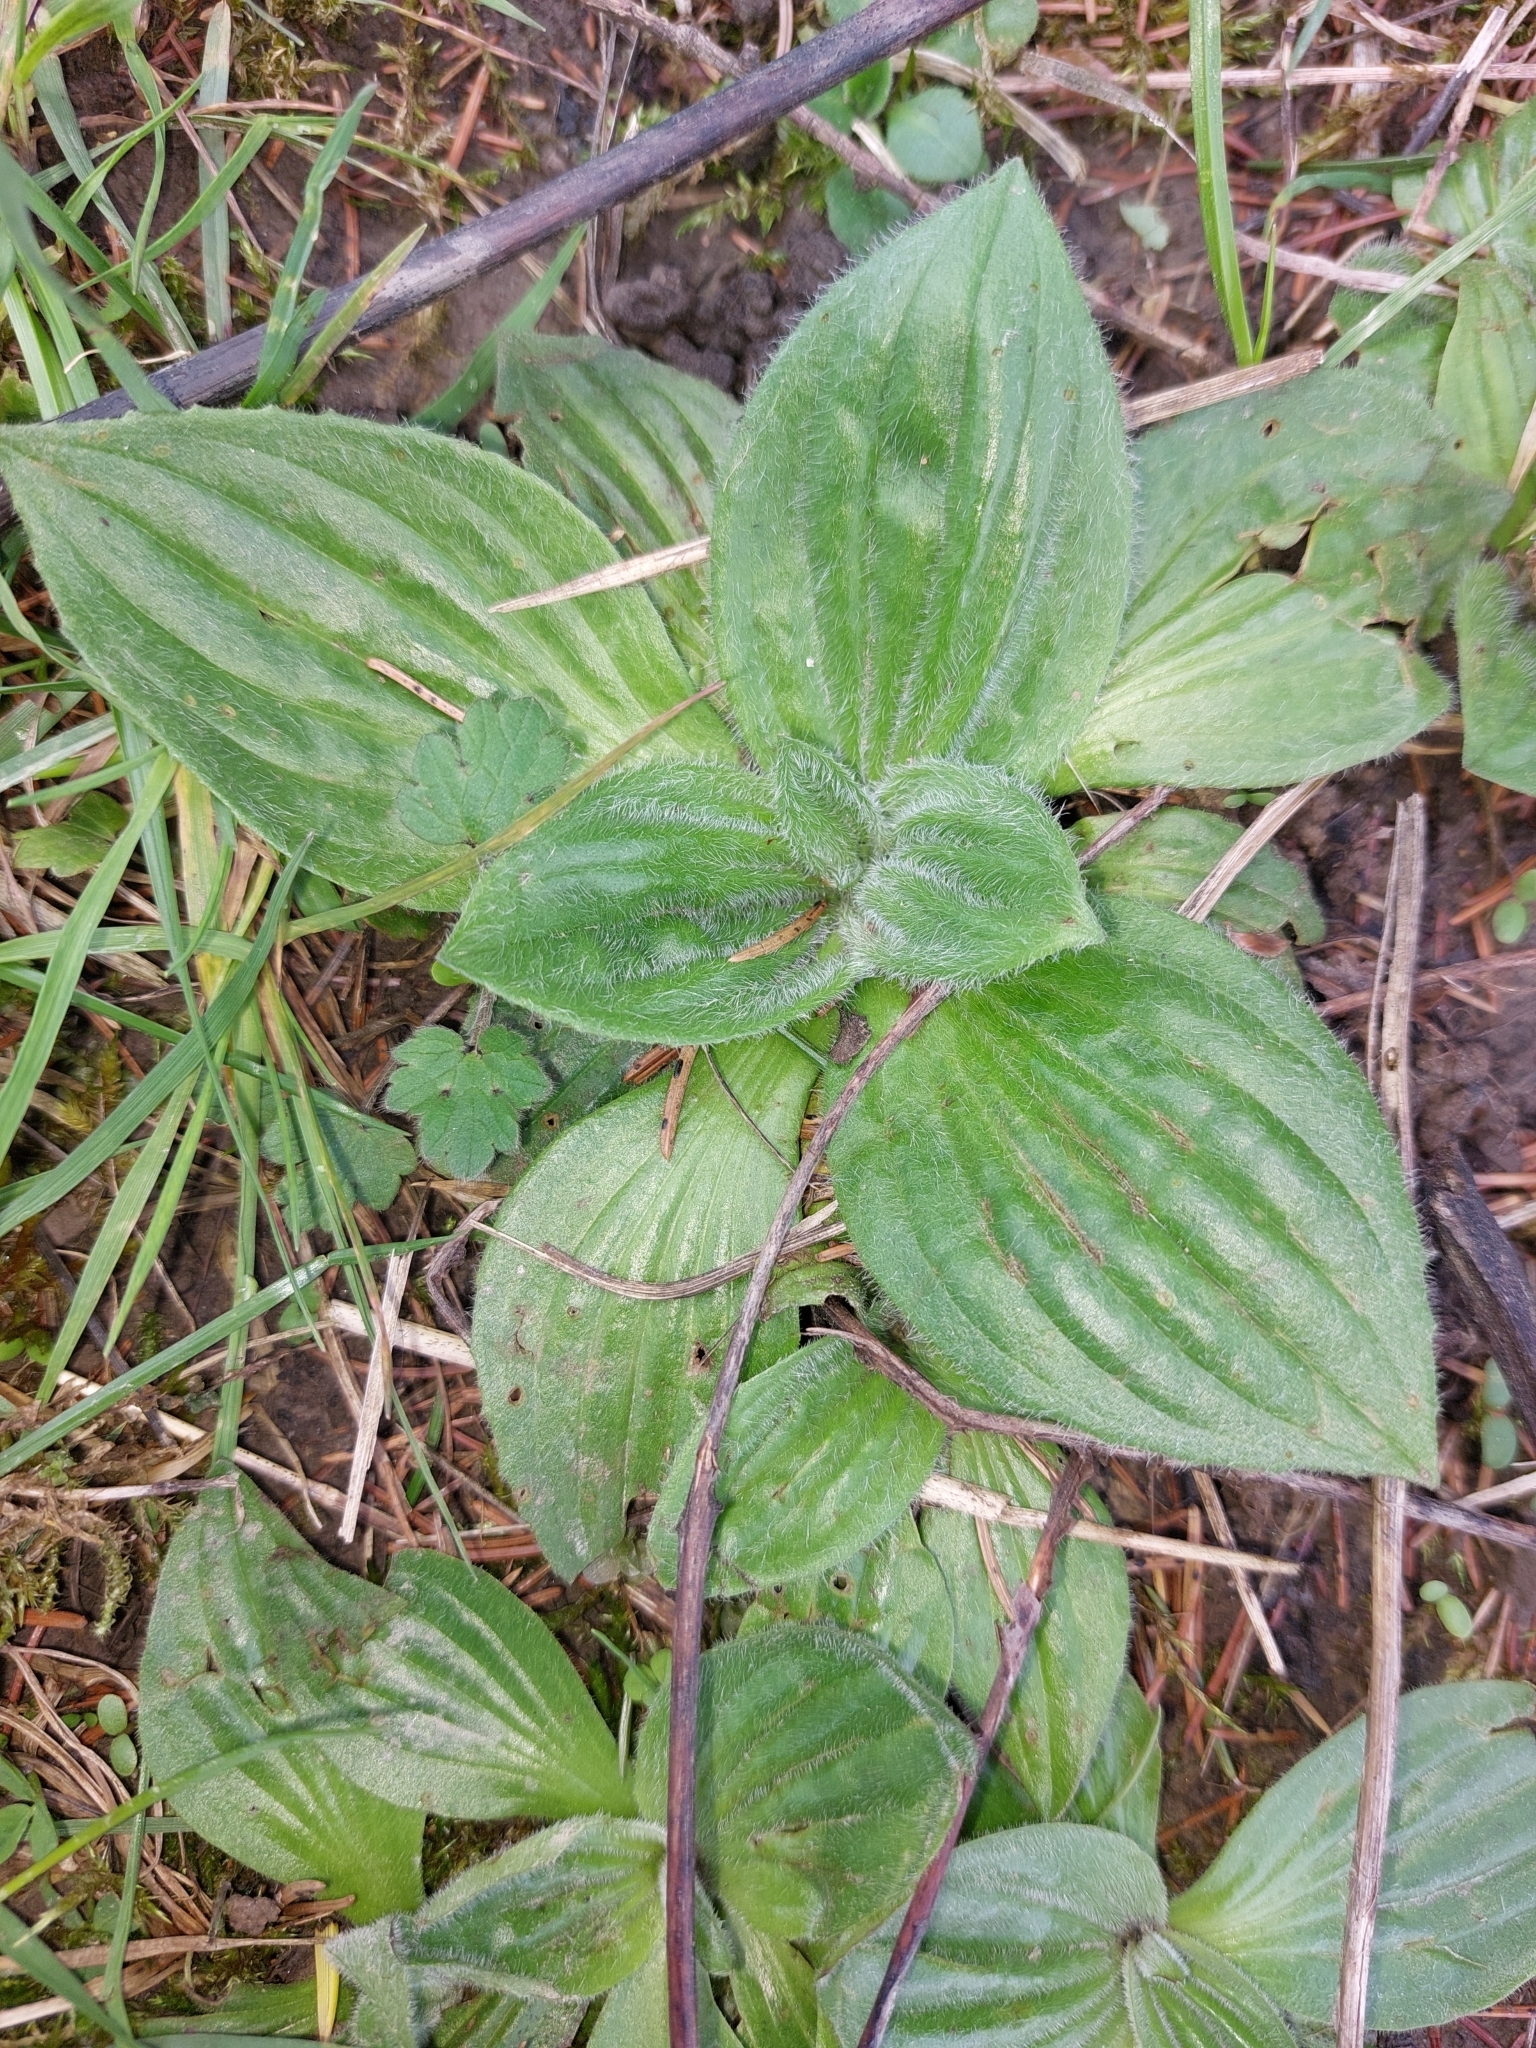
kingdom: Plantae
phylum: Tracheophyta
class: Magnoliopsida
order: Lamiales
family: Plantaginaceae
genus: Plantago
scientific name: Plantago media
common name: Hoary plantain
